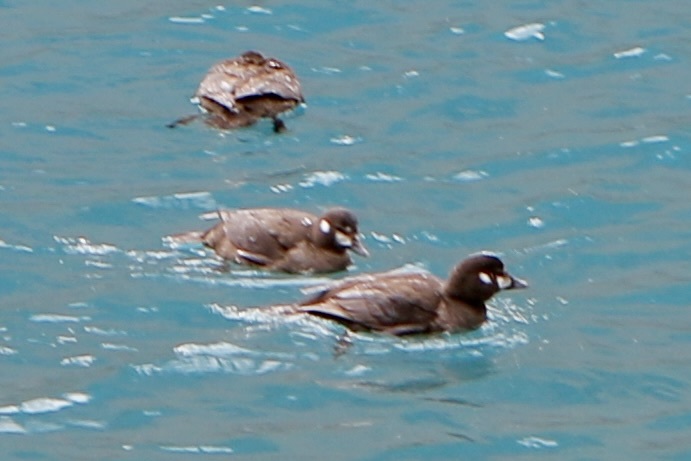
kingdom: Animalia
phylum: Chordata
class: Aves
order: Anseriformes
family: Anatidae
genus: Histrionicus
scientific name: Histrionicus histrionicus
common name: Harlequin duck
